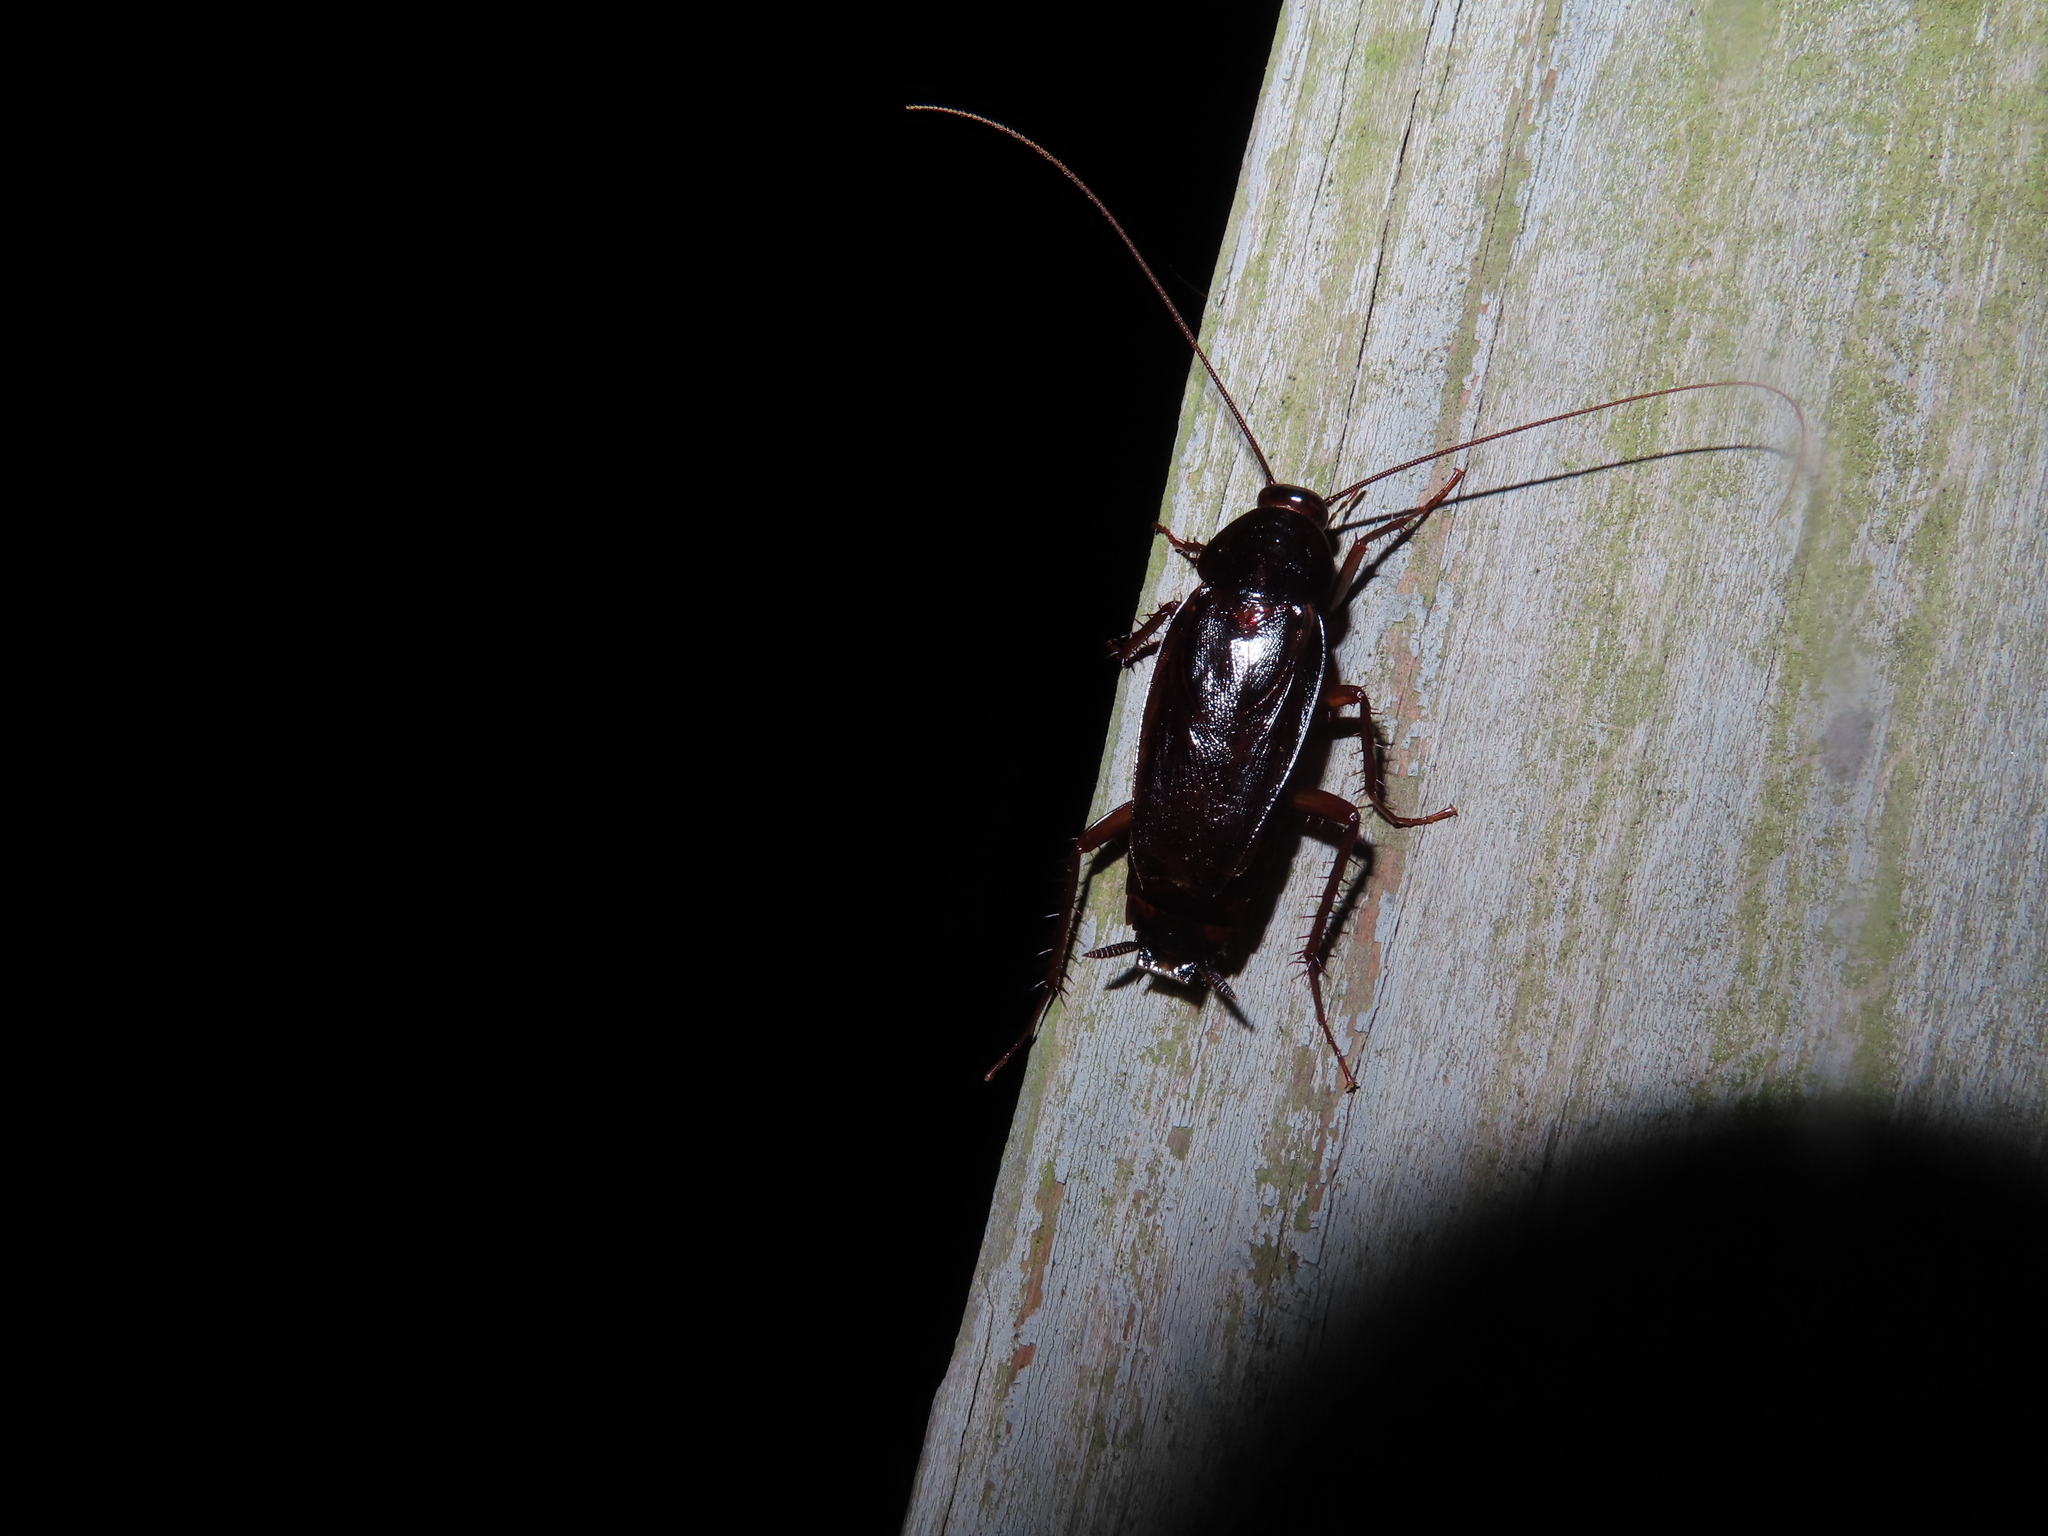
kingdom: Animalia
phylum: Arthropoda
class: Insecta
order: Blattodea
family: Blattidae
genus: Blatta
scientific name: Blatta orientalis
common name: Oriental cockroach
